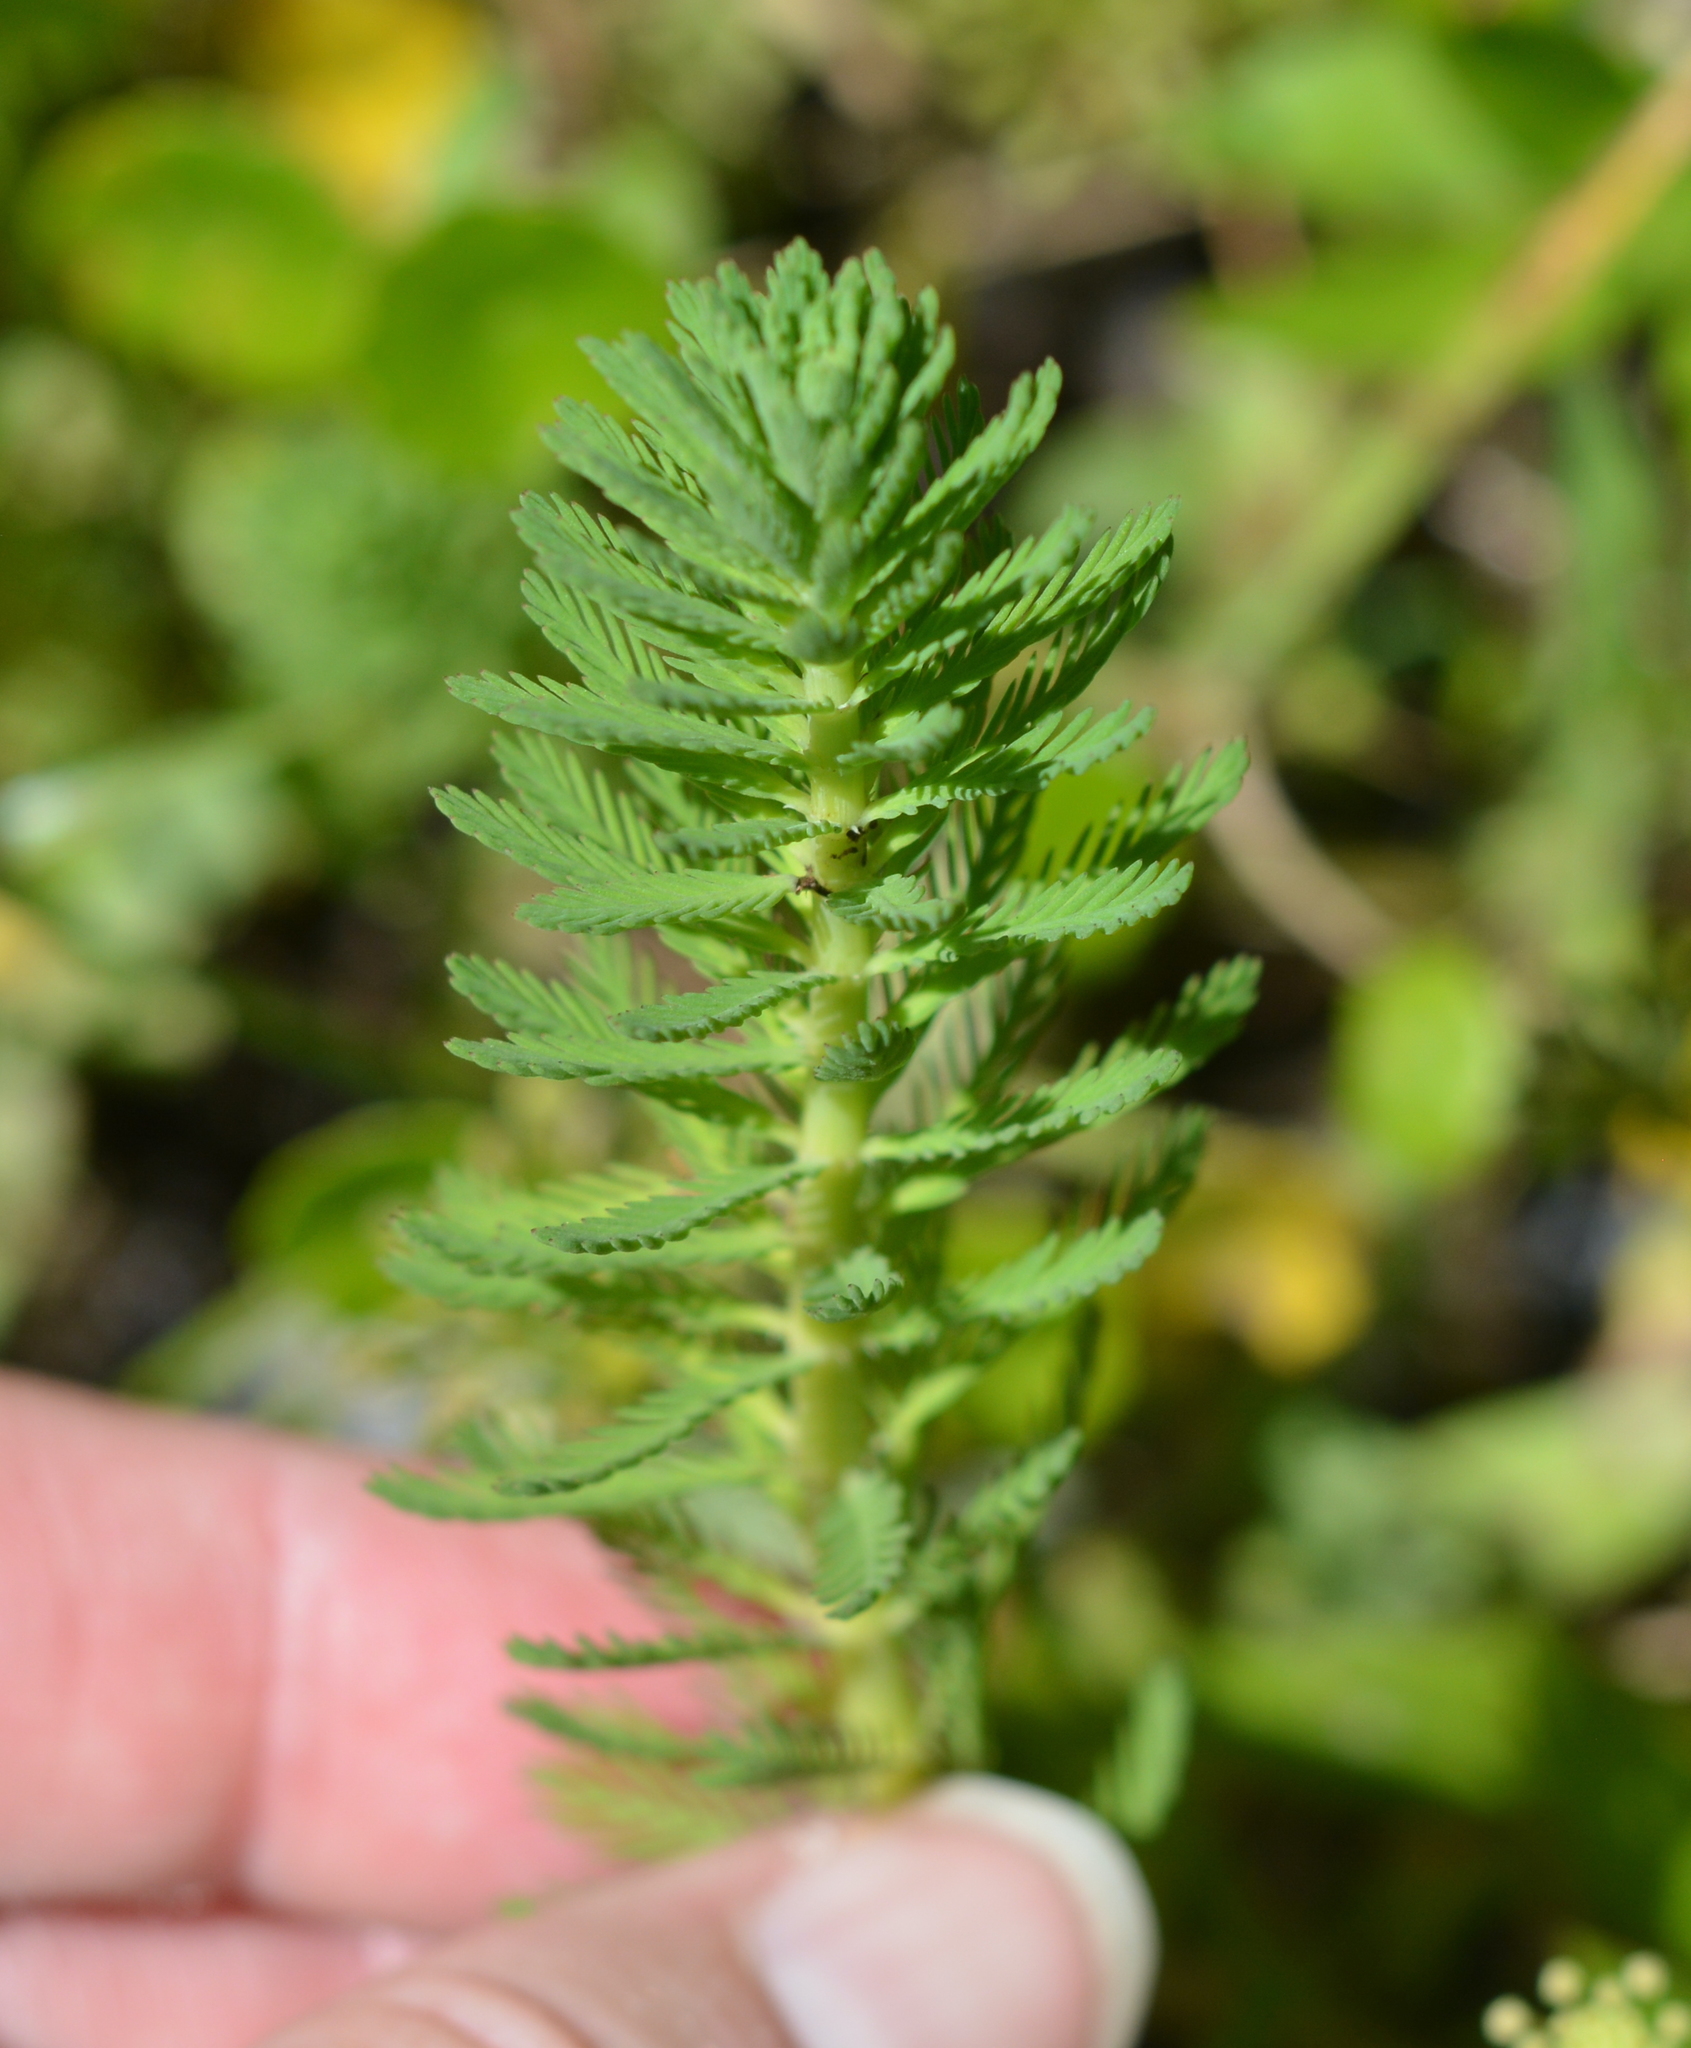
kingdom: Plantae
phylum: Tracheophyta
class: Magnoliopsida
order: Saxifragales
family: Haloragaceae
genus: Myriophyllum
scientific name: Myriophyllum aquaticum
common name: Parrot's feather
